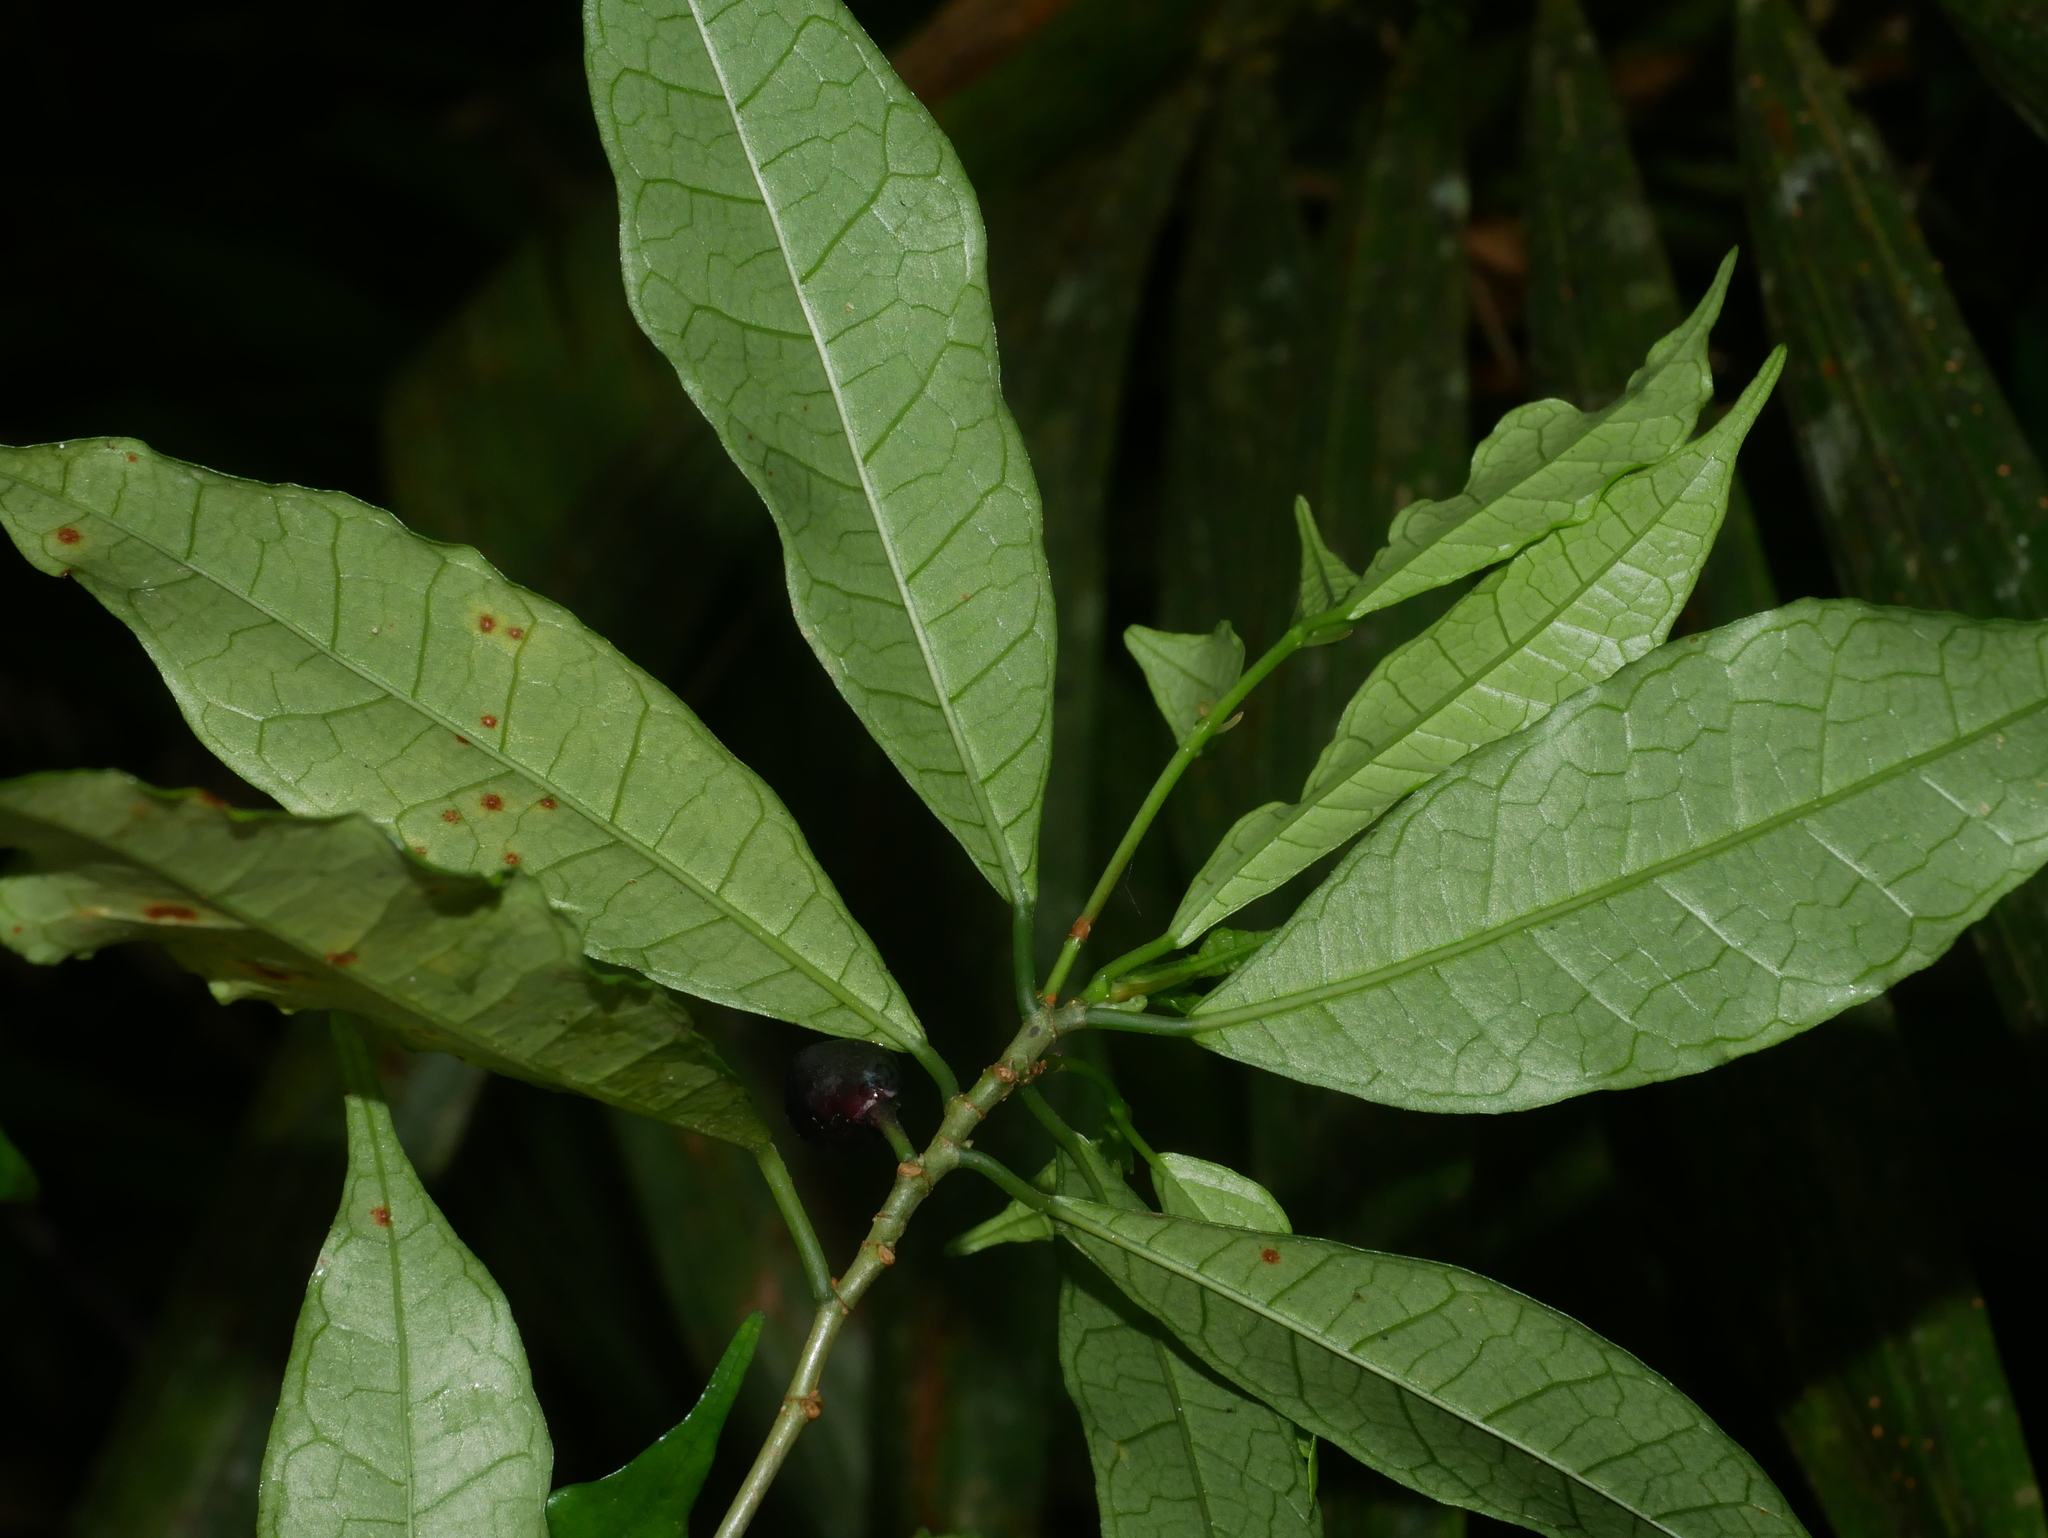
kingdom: Plantae
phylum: Tracheophyta
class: Magnoliopsida
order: Rosales
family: Moraceae
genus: Ficus
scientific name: Ficus formosana
